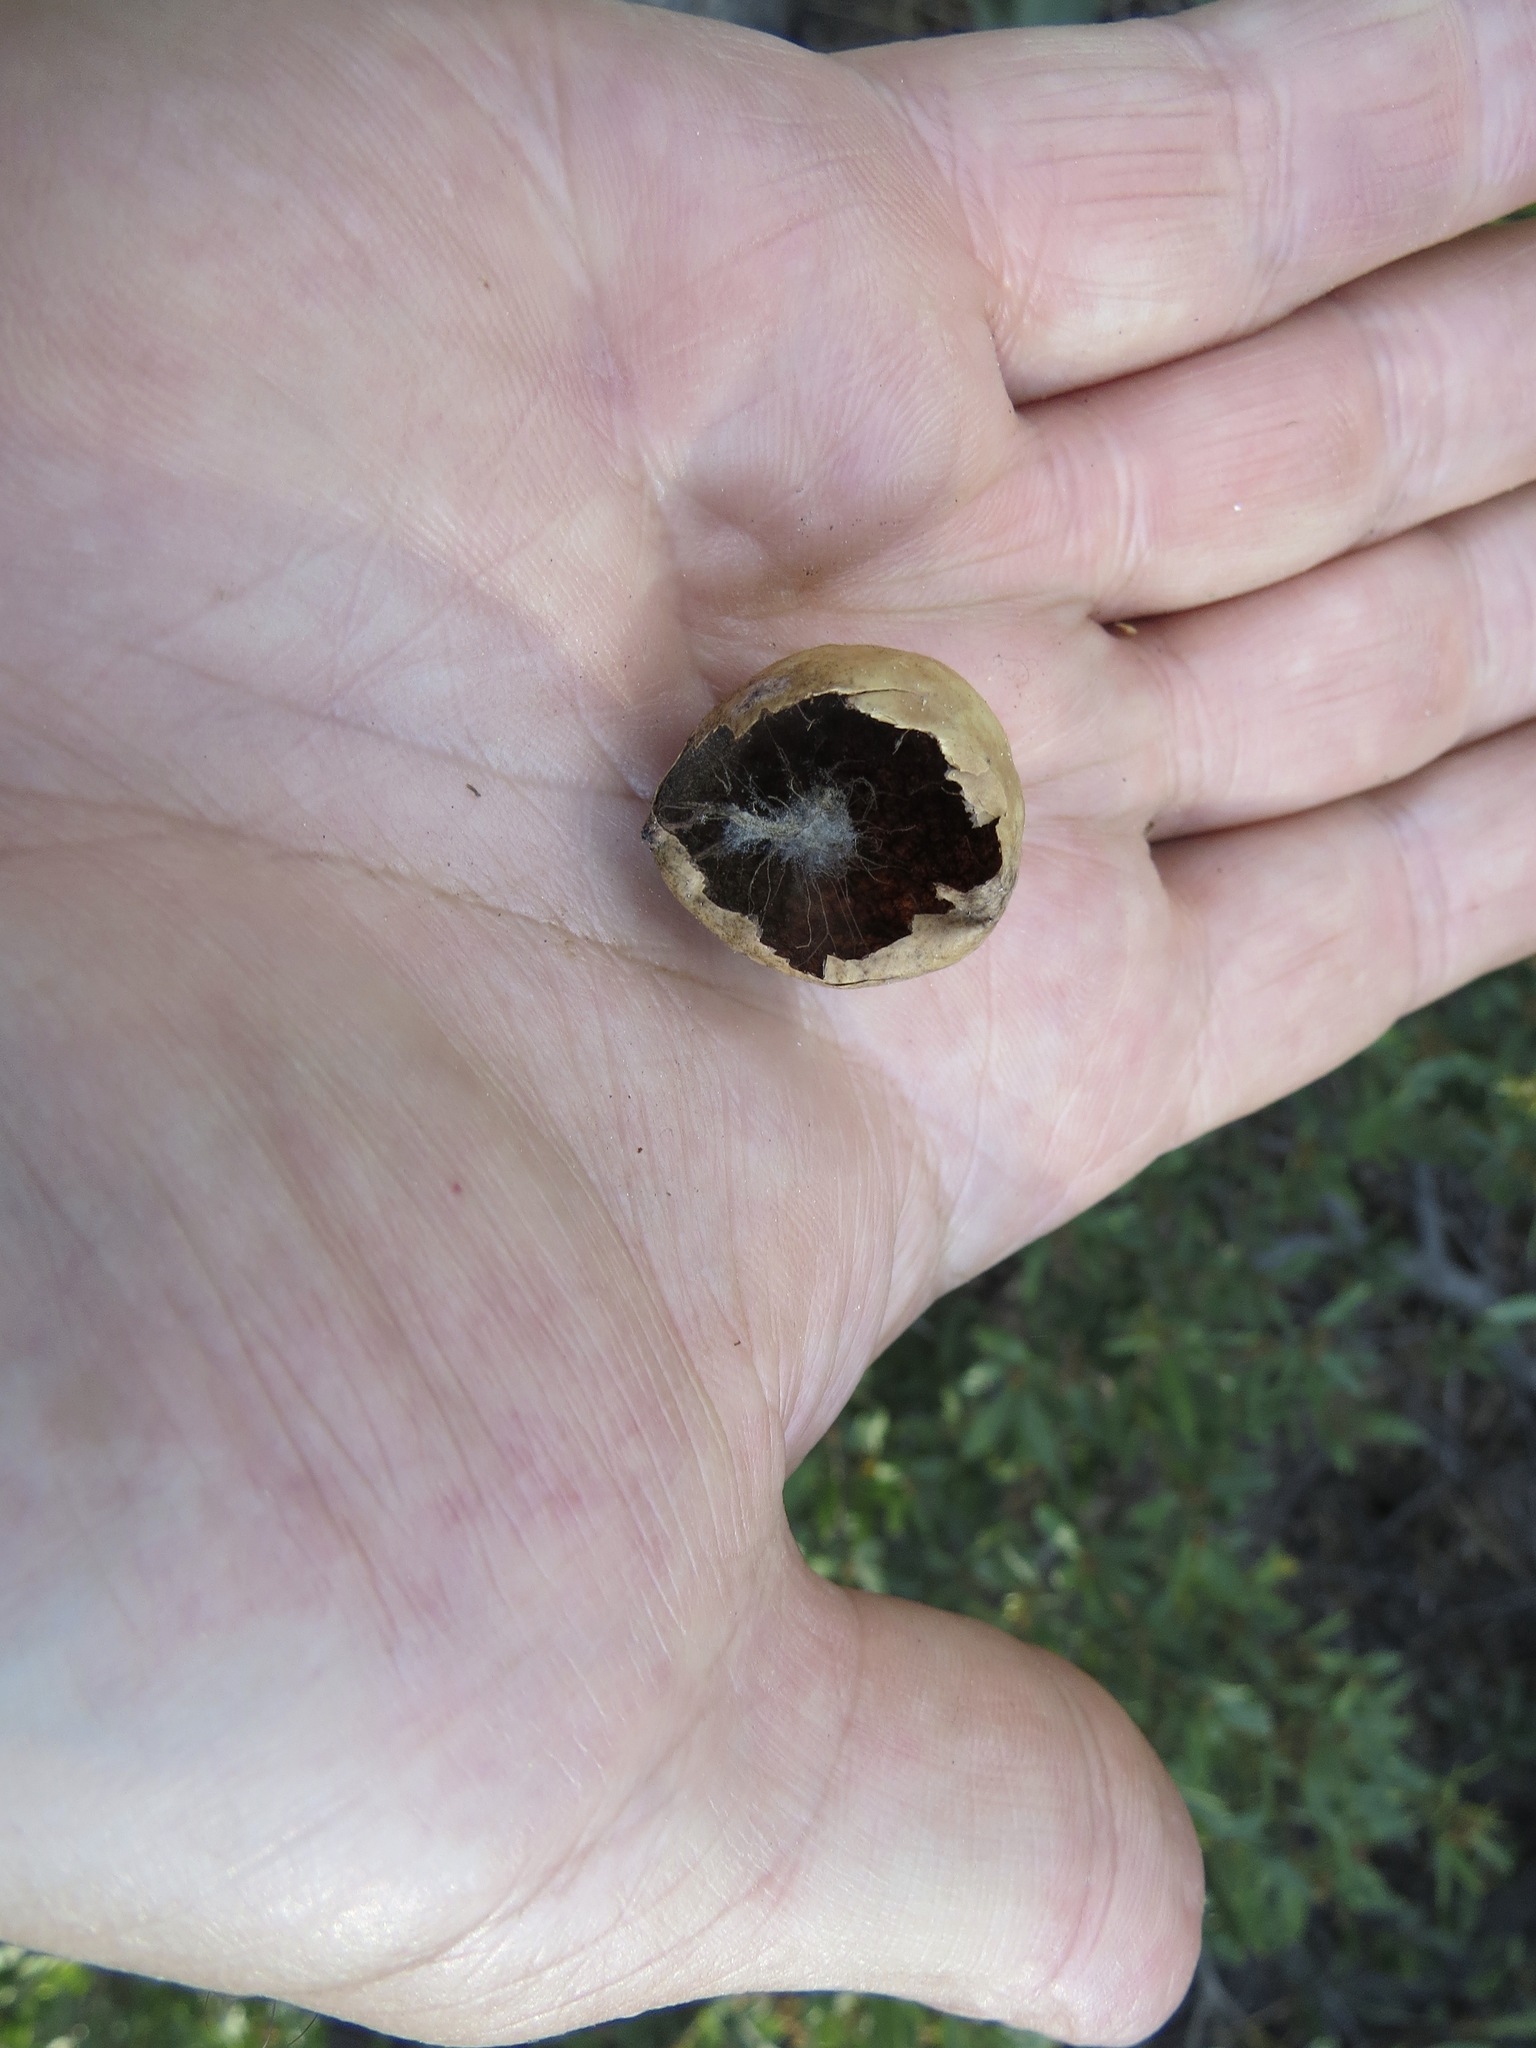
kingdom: Animalia
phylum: Arthropoda
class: Insecta
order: Hymenoptera
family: Cynipidae
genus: Andricus
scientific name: Andricus
